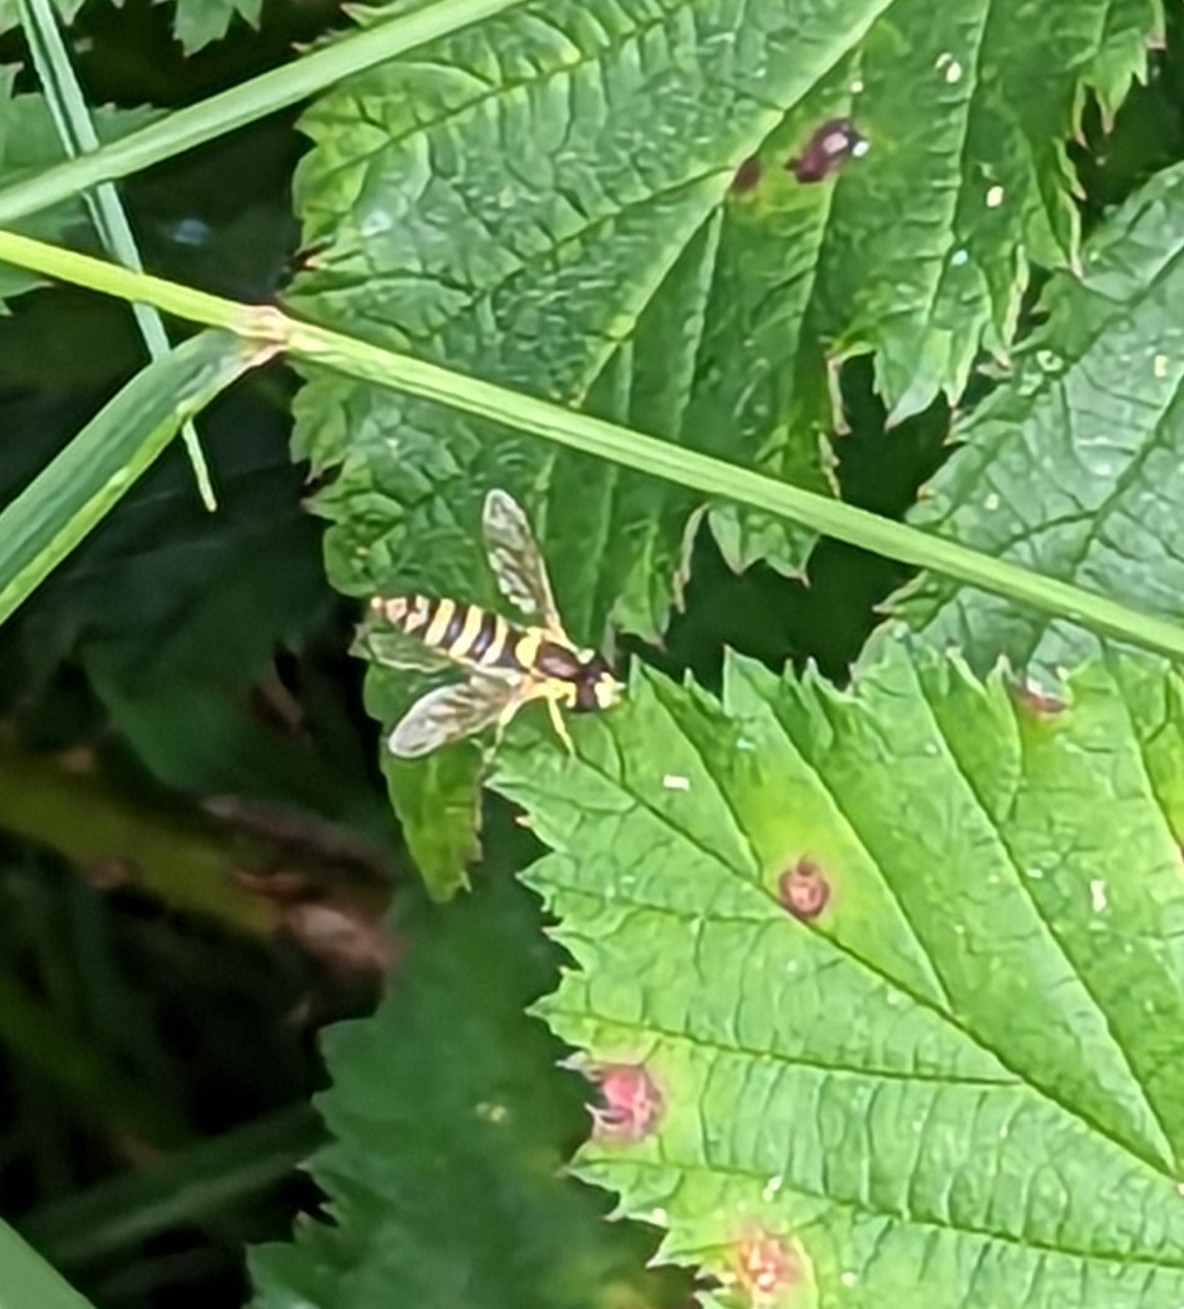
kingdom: Animalia
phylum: Arthropoda
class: Insecta
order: Diptera
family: Syrphidae
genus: Sphaerophoria
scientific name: Sphaerophoria
